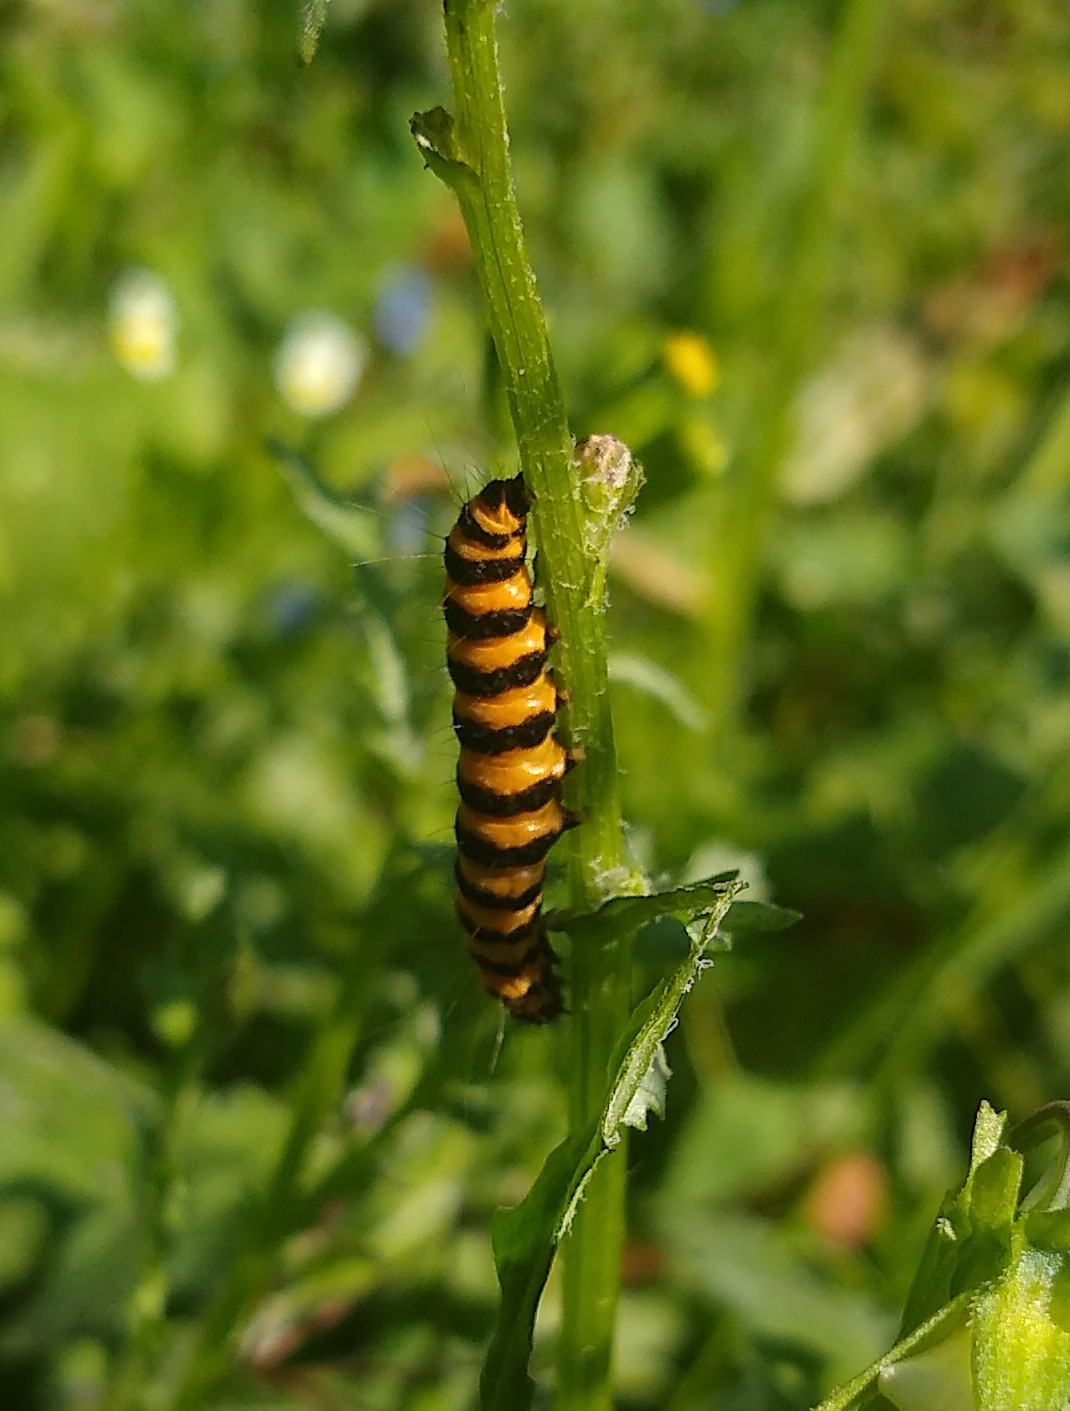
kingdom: Animalia
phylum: Arthropoda
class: Insecta
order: Lepidoptera
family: Erebidae
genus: Tyria
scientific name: Tyria jacobaeae
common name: Cinnabar
